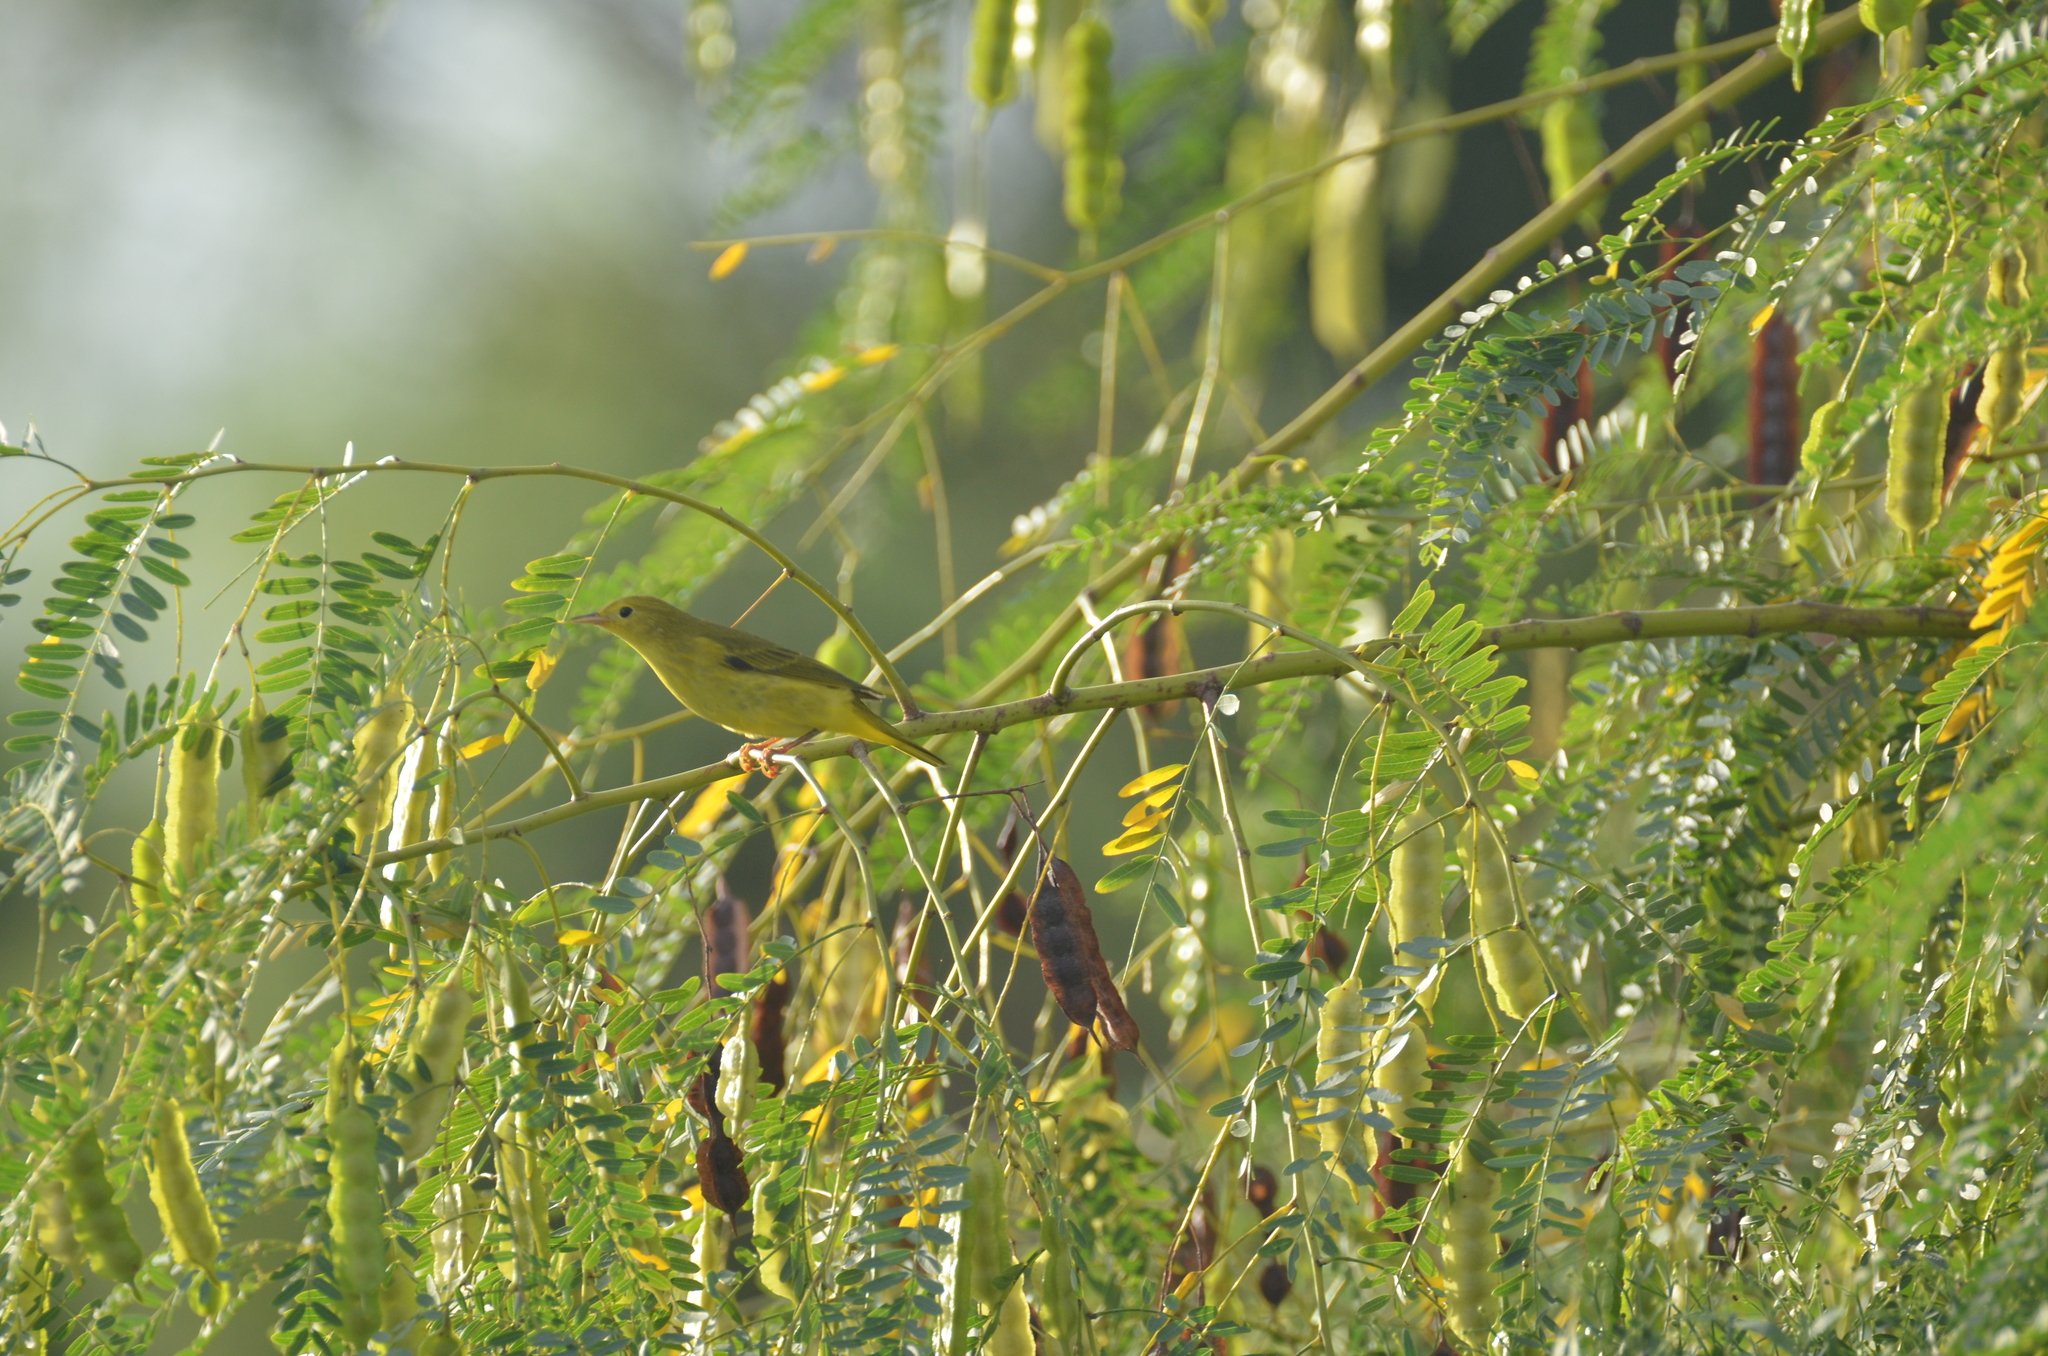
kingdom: Animalia
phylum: Chordata
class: Aves
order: Passeriformes
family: Parulidae
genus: Setophaga
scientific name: Setophaga petechia
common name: Yellow warbler
